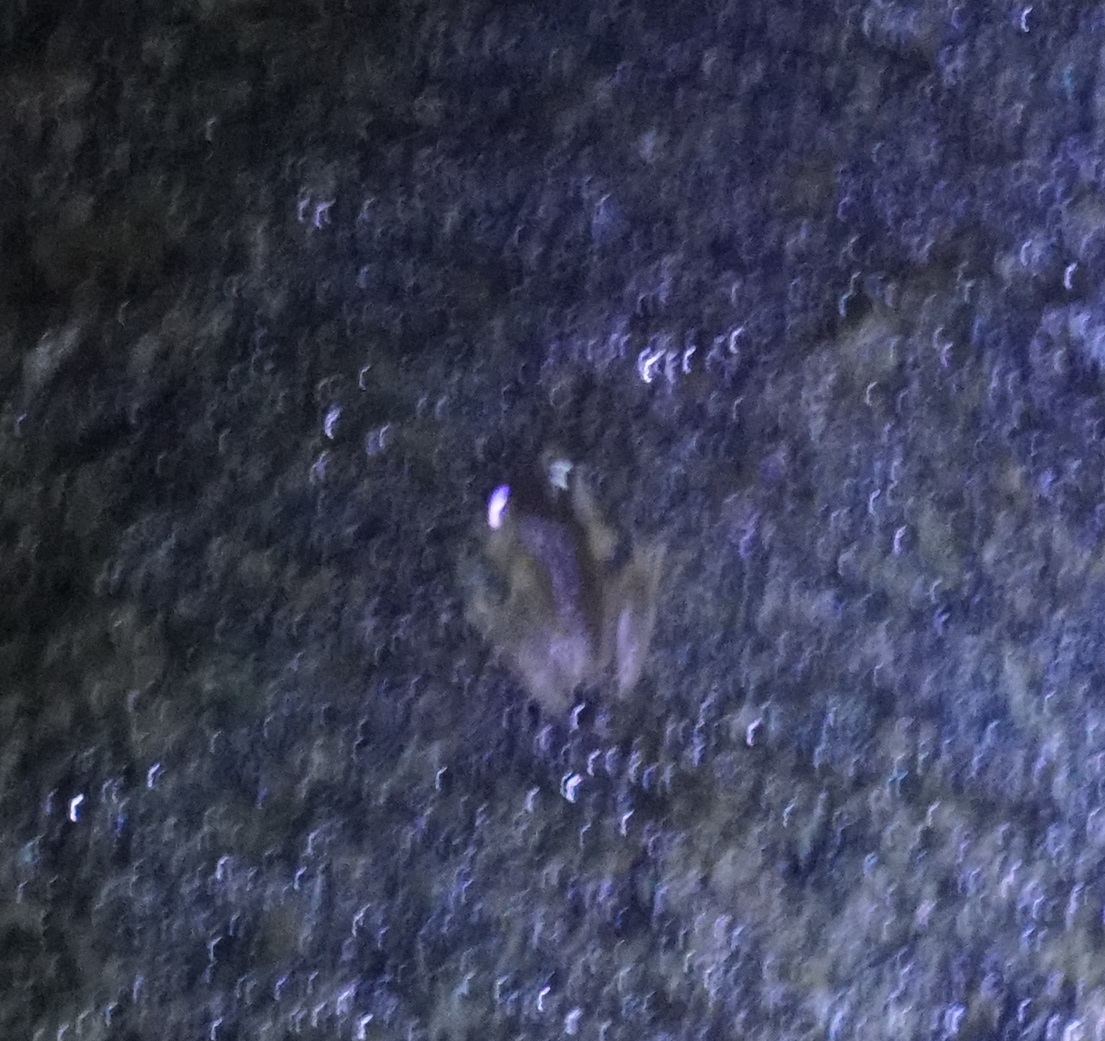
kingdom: Animalia
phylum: Chordata
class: Amphibia
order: Anura
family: Pelodryadidae
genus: Ranoidea
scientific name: Ranoidea dayi
